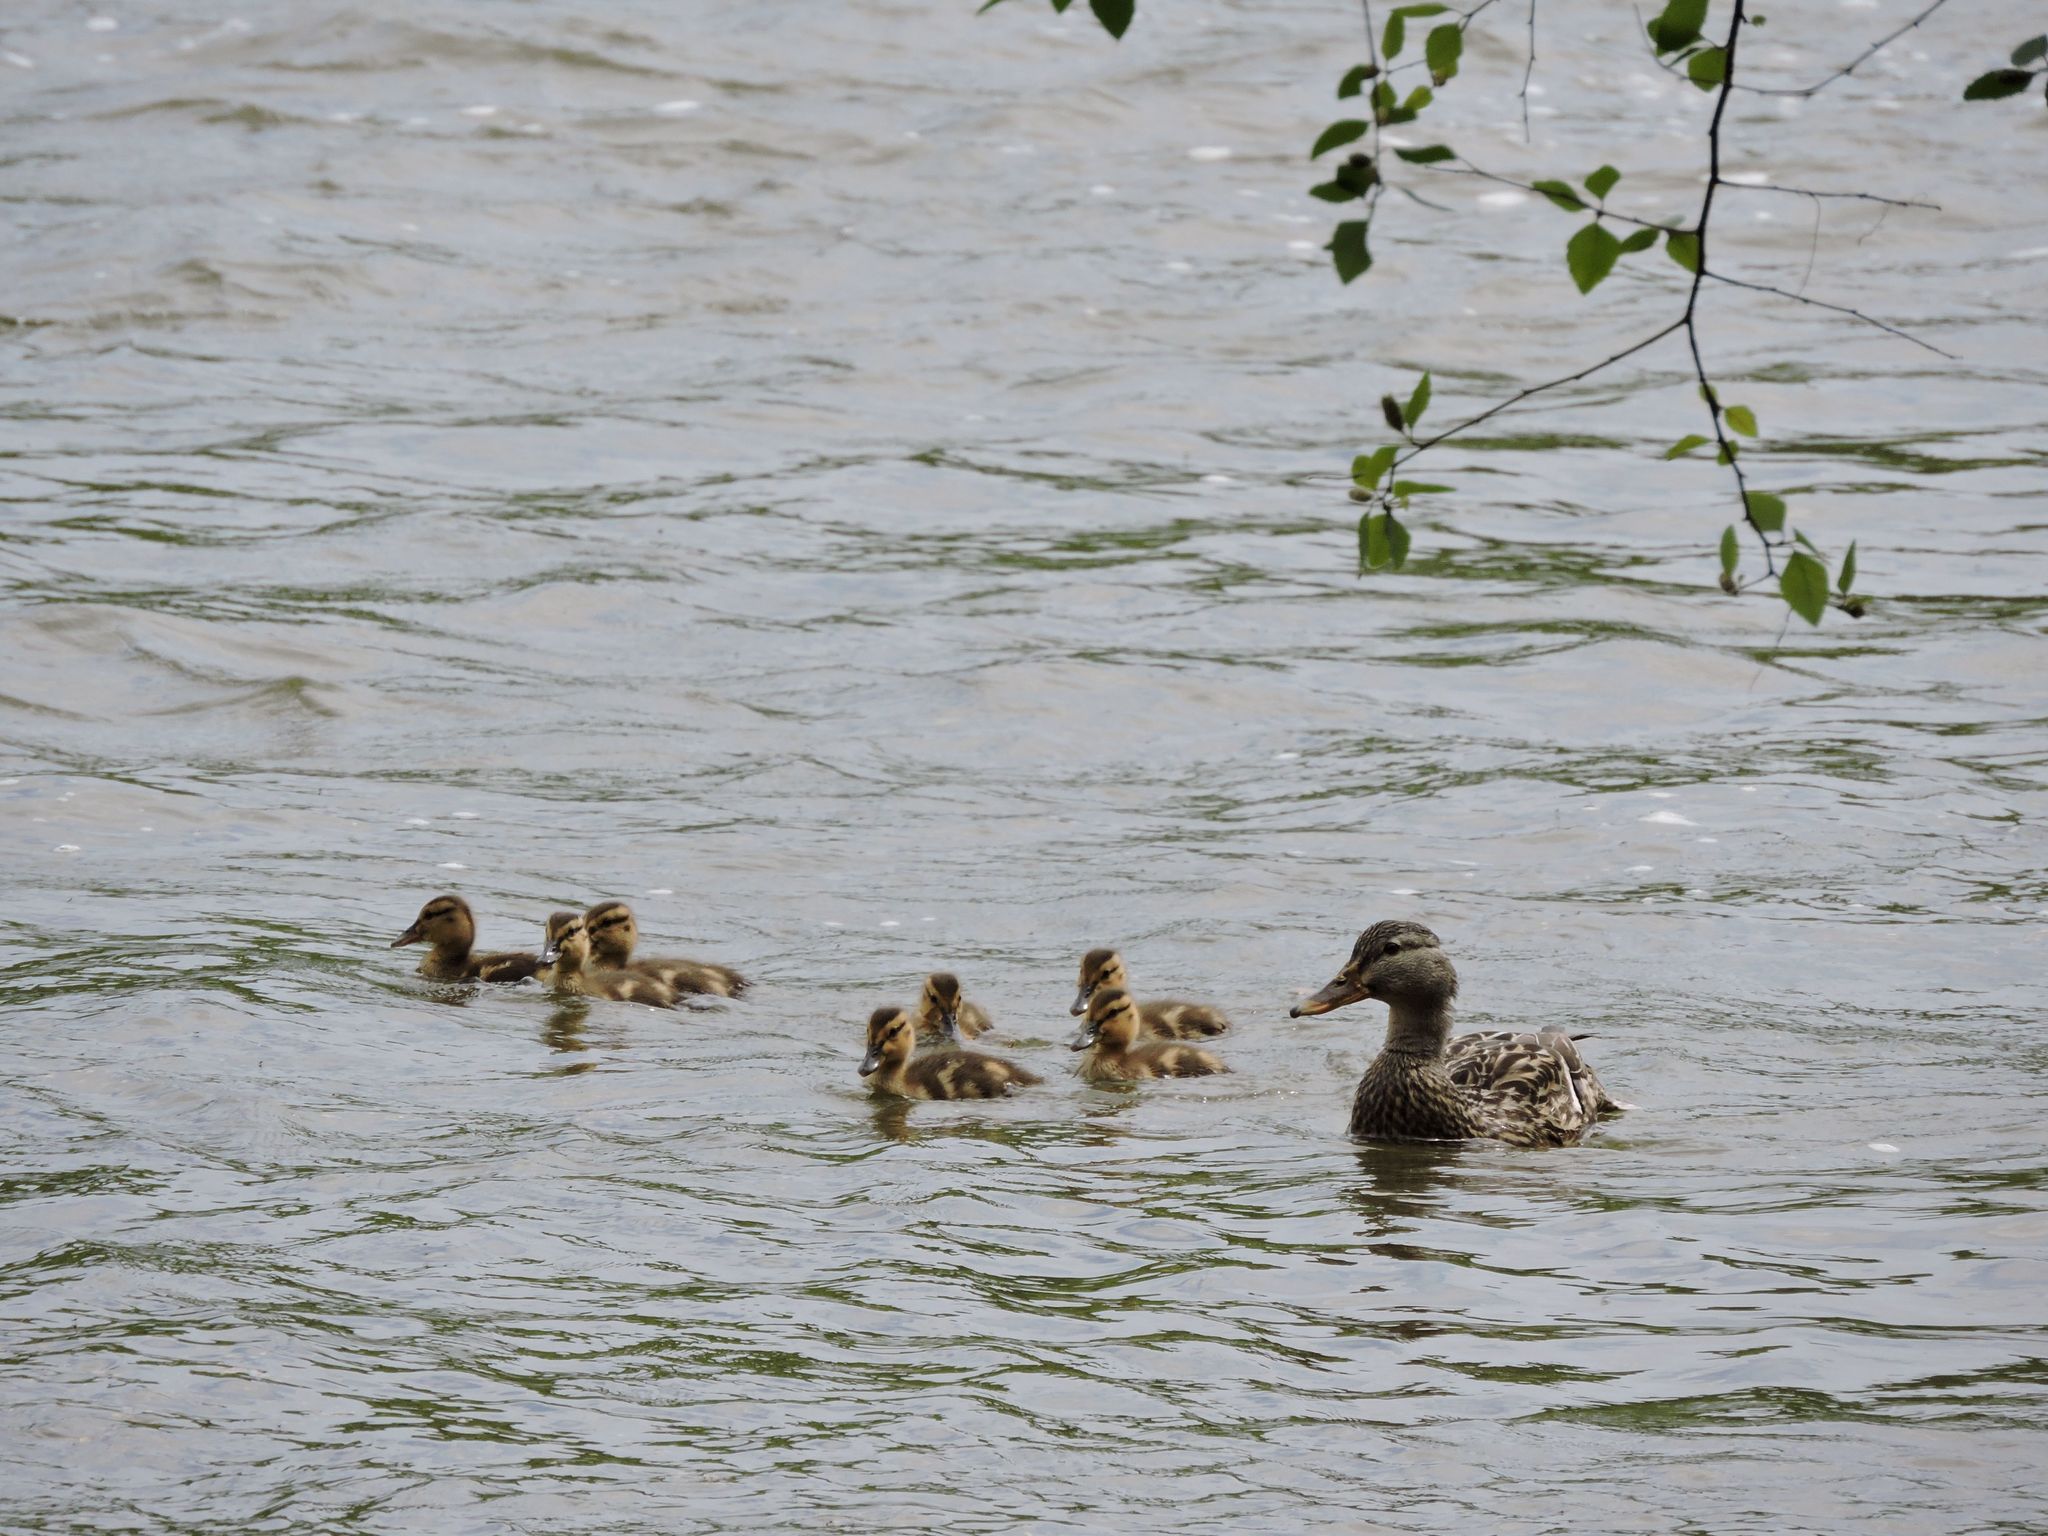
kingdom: Animalia
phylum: Chordata
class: Aves
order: Anseriformes
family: Anatidae
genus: Anas
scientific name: Anas platyrhynchos
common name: Mallard
